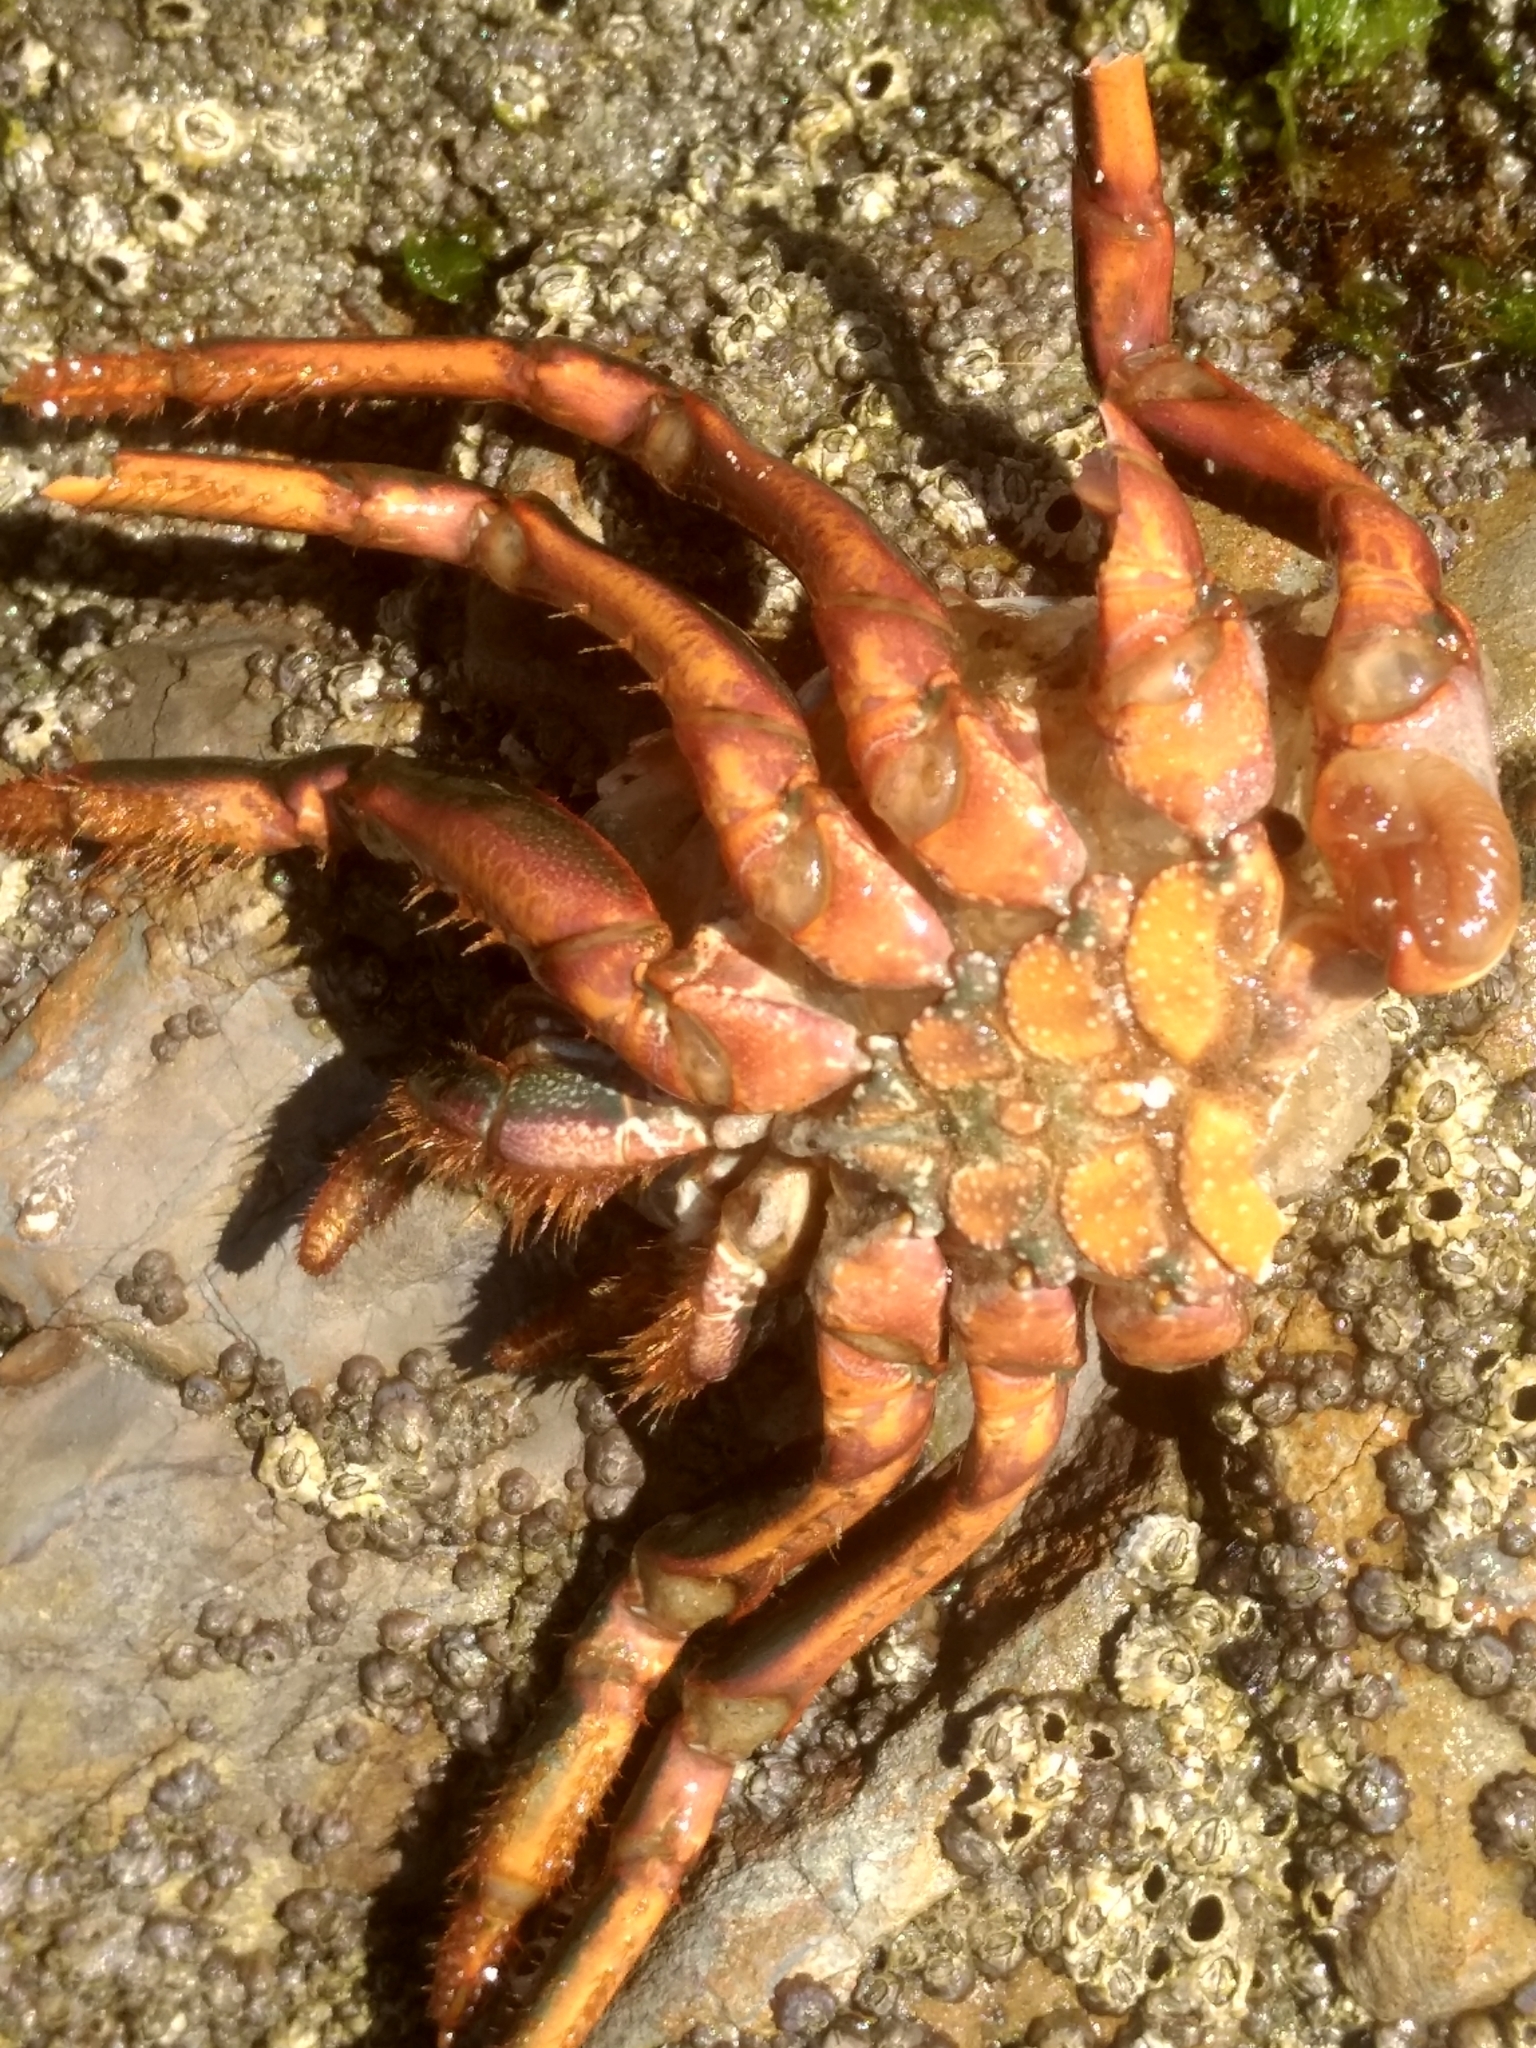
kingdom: Animalia
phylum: Arthropoda
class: Malacostraca
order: Decapoda
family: Palinuridae
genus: Panulirus
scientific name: Panulirus interruptus
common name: California spiny lobster
